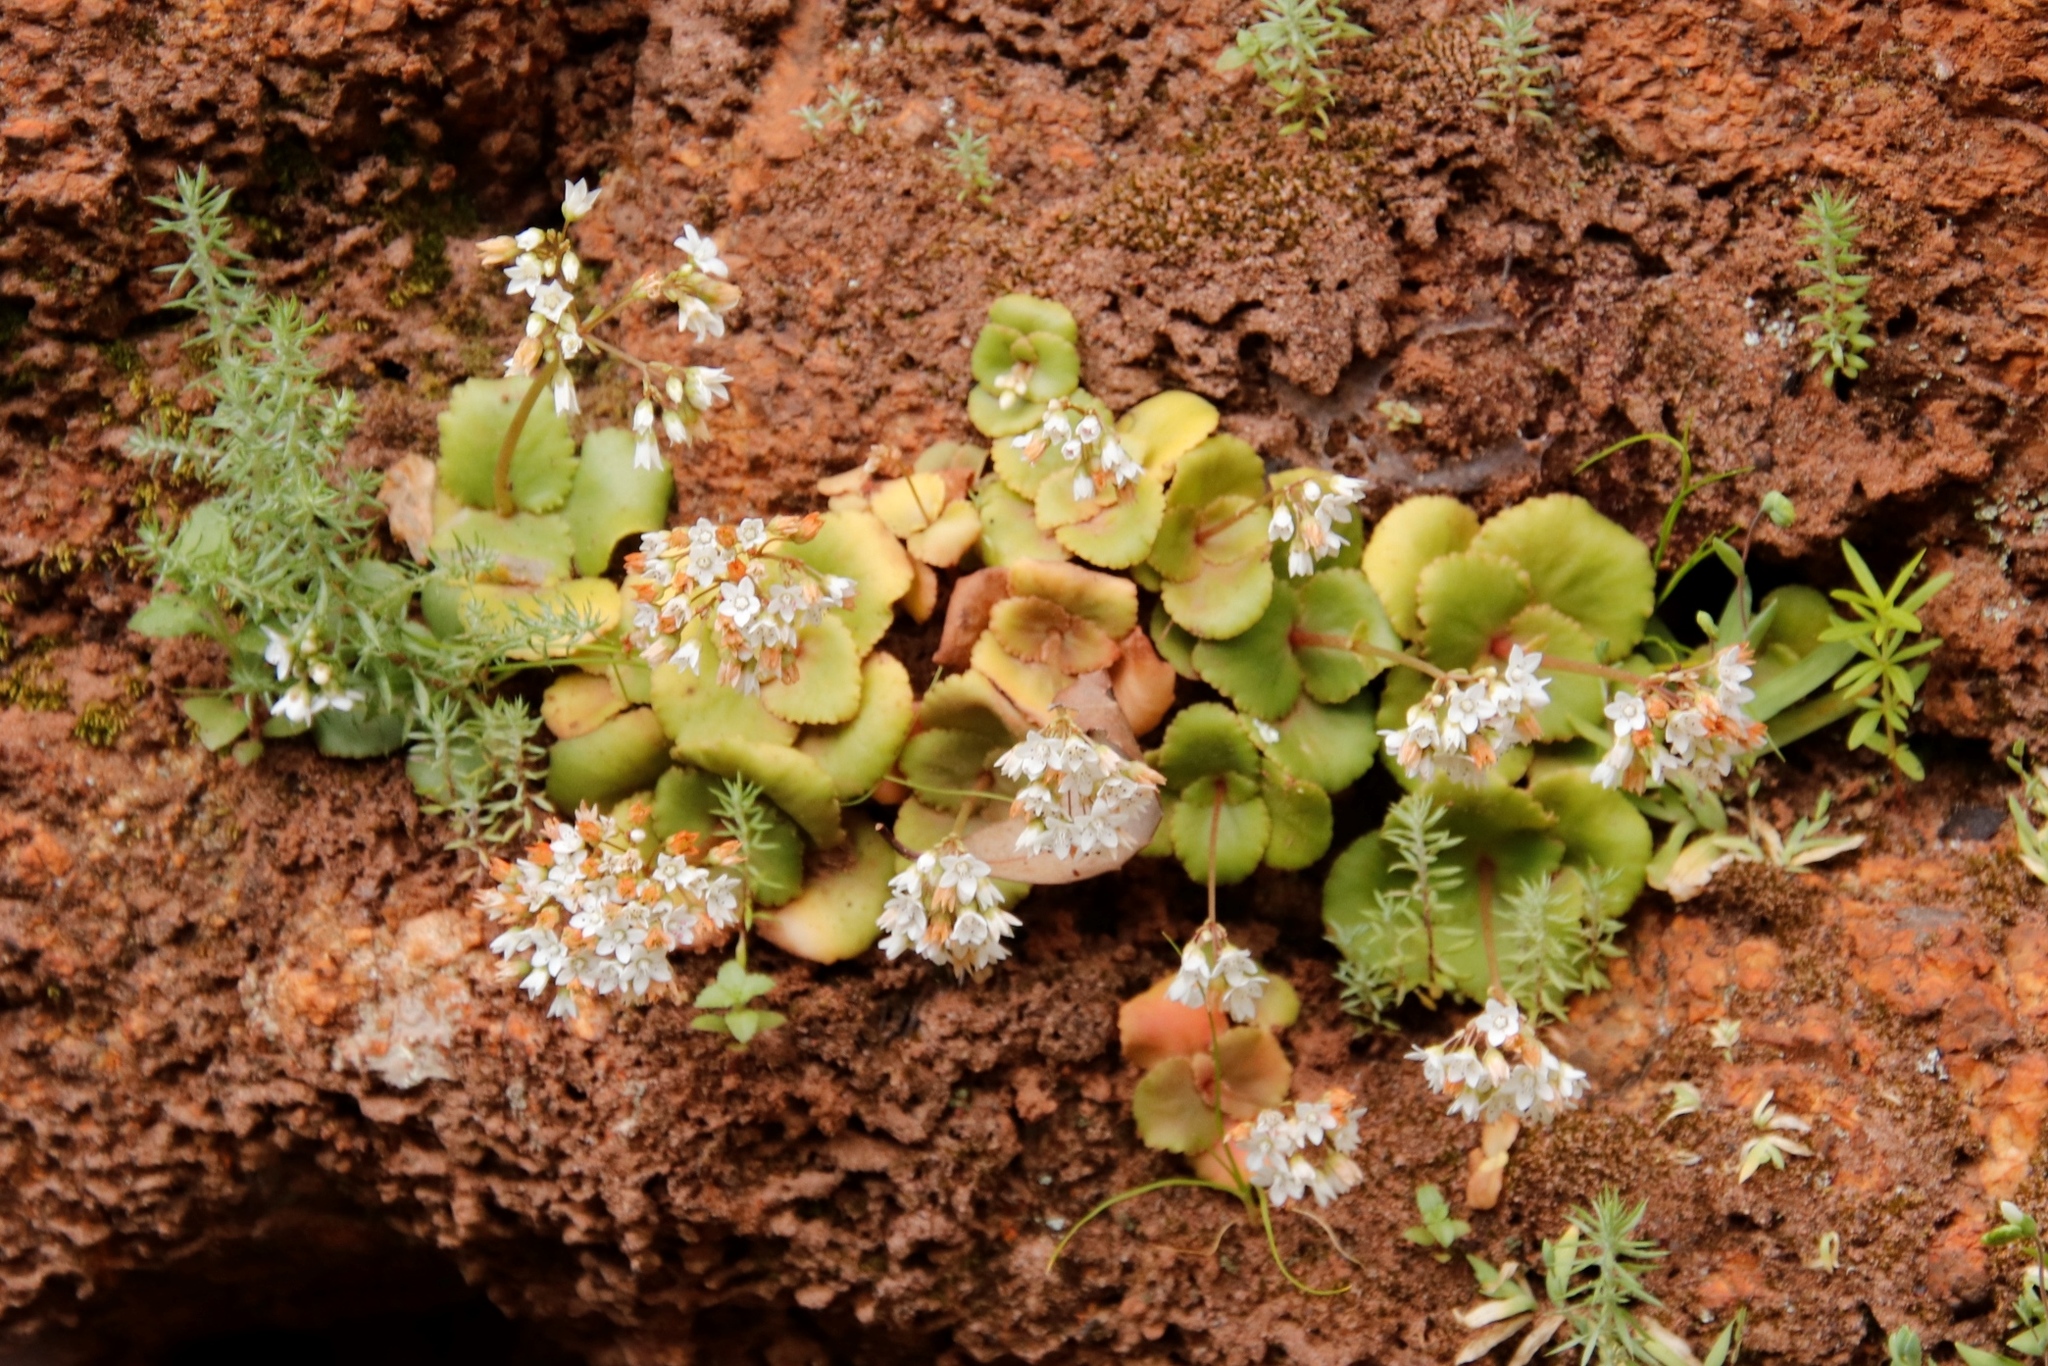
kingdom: Plantae
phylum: Tracheophyta
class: Magnoliopsida
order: Saxifragales
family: Crassulaceae
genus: Crassula
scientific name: Crassula capensis
